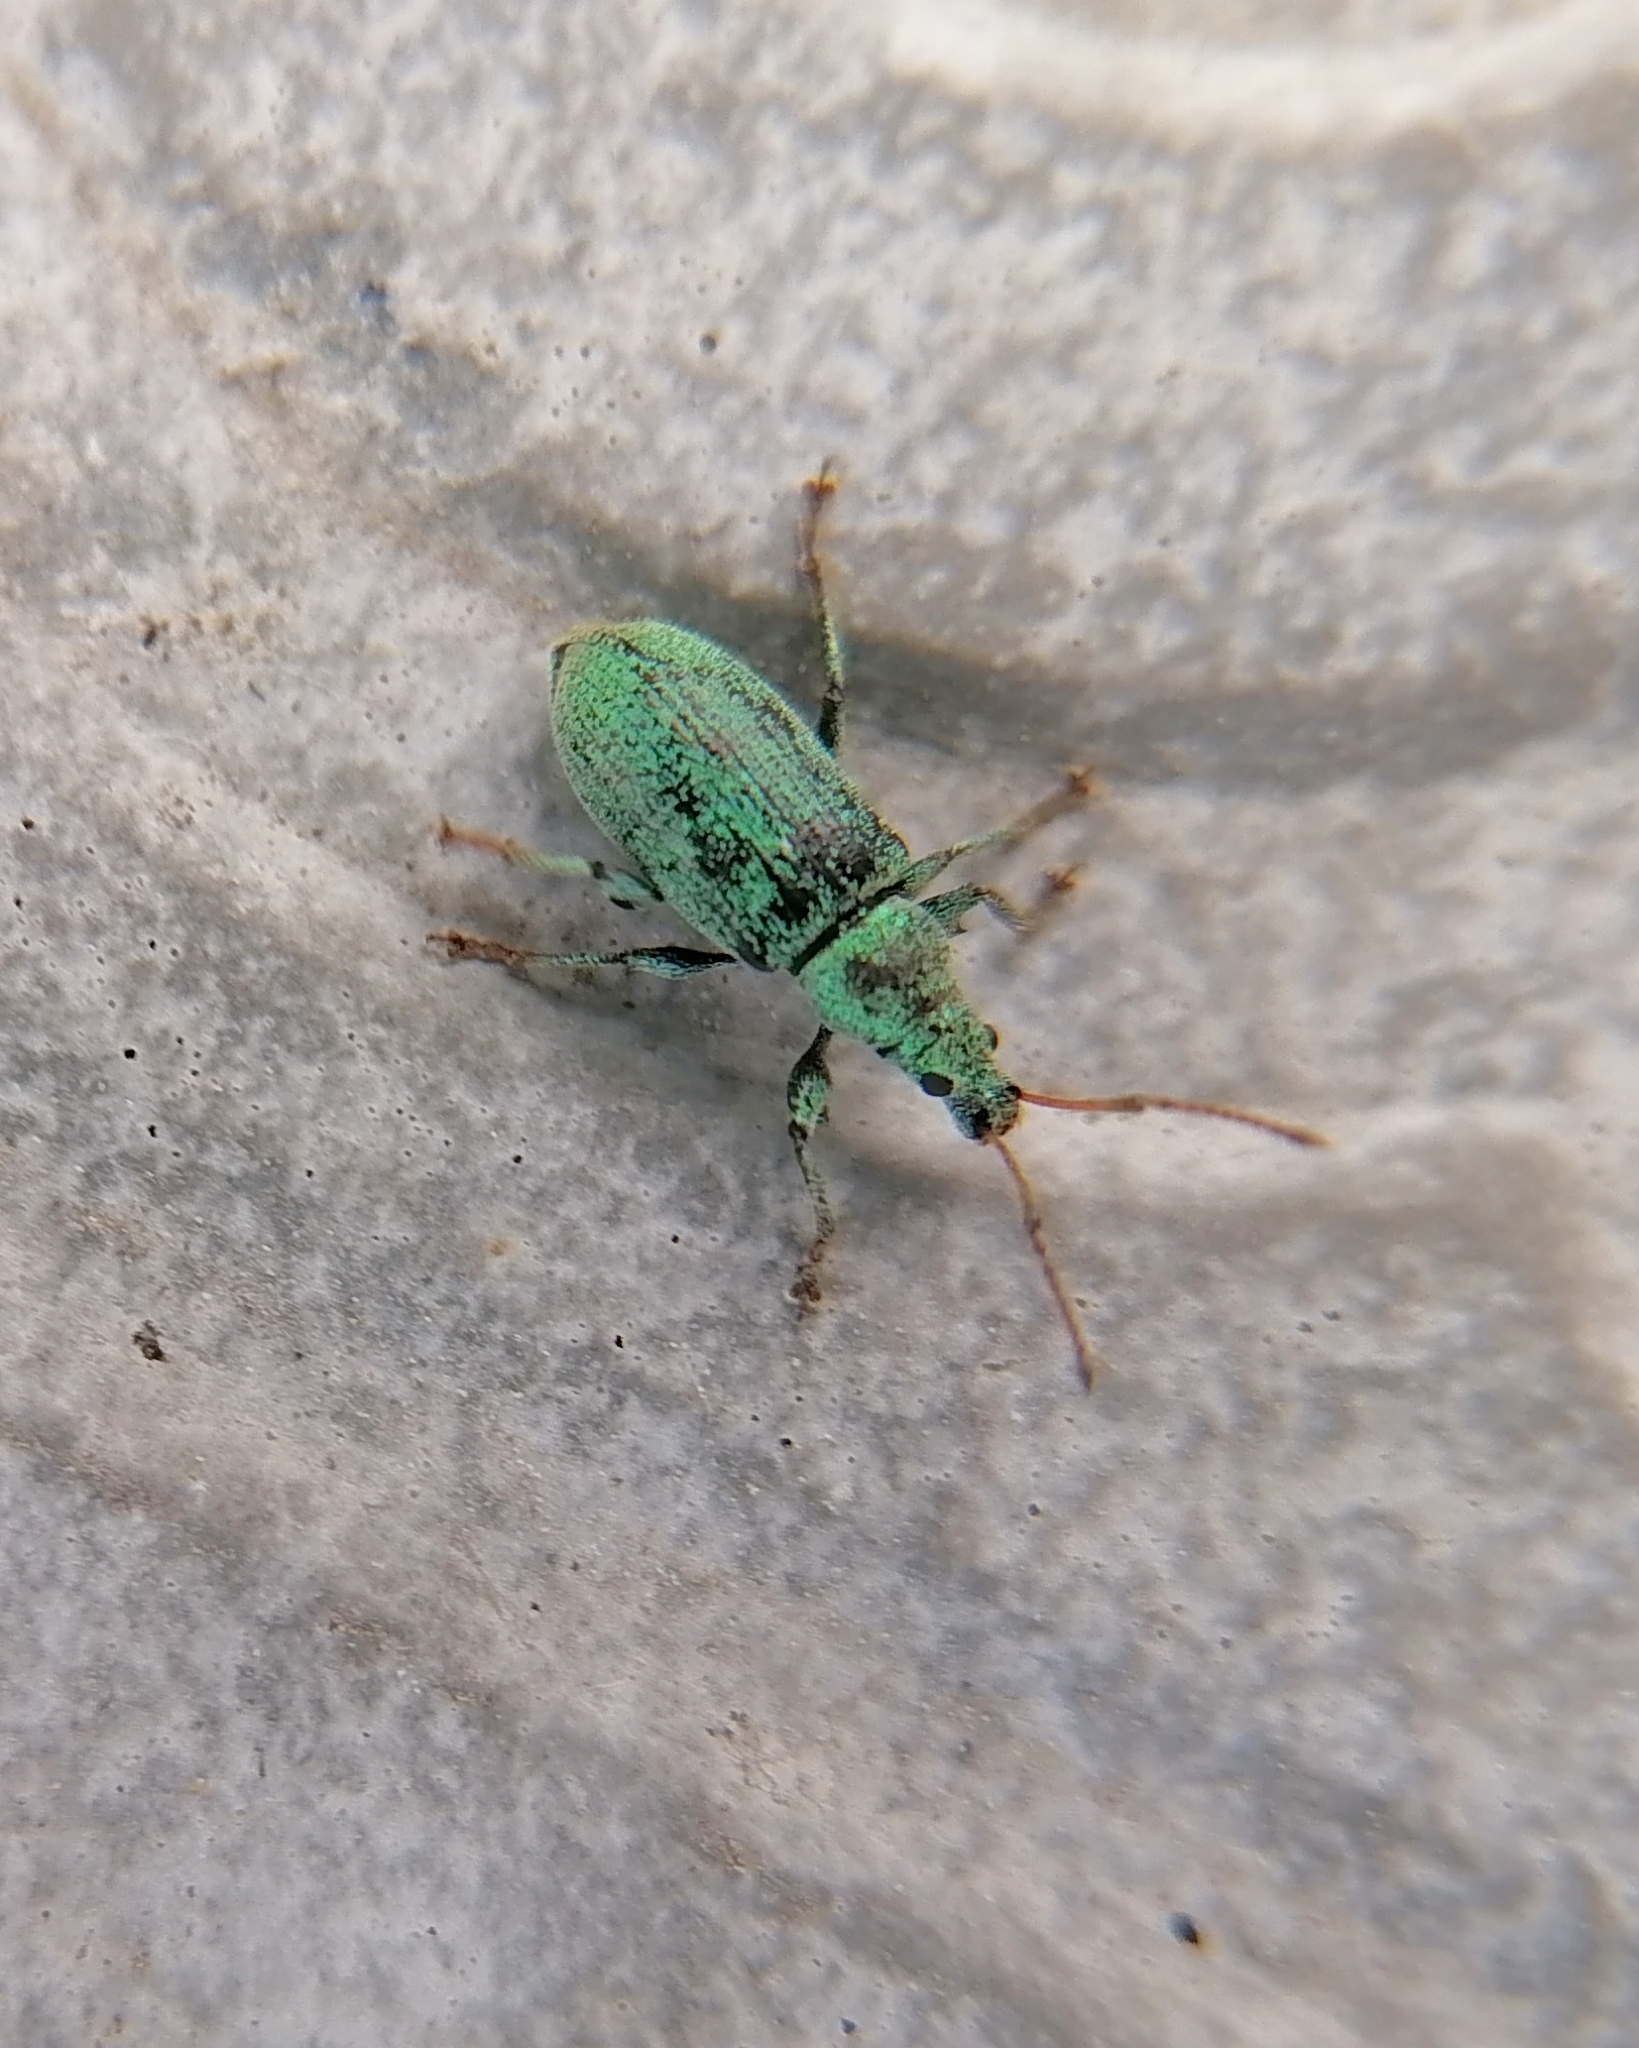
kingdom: Animalia
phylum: Arthropoda
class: Insecta
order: Coleoptera
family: Curculionidae
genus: Phyllobius
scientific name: Phyllobius maculicornis
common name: Green leaf weevil
